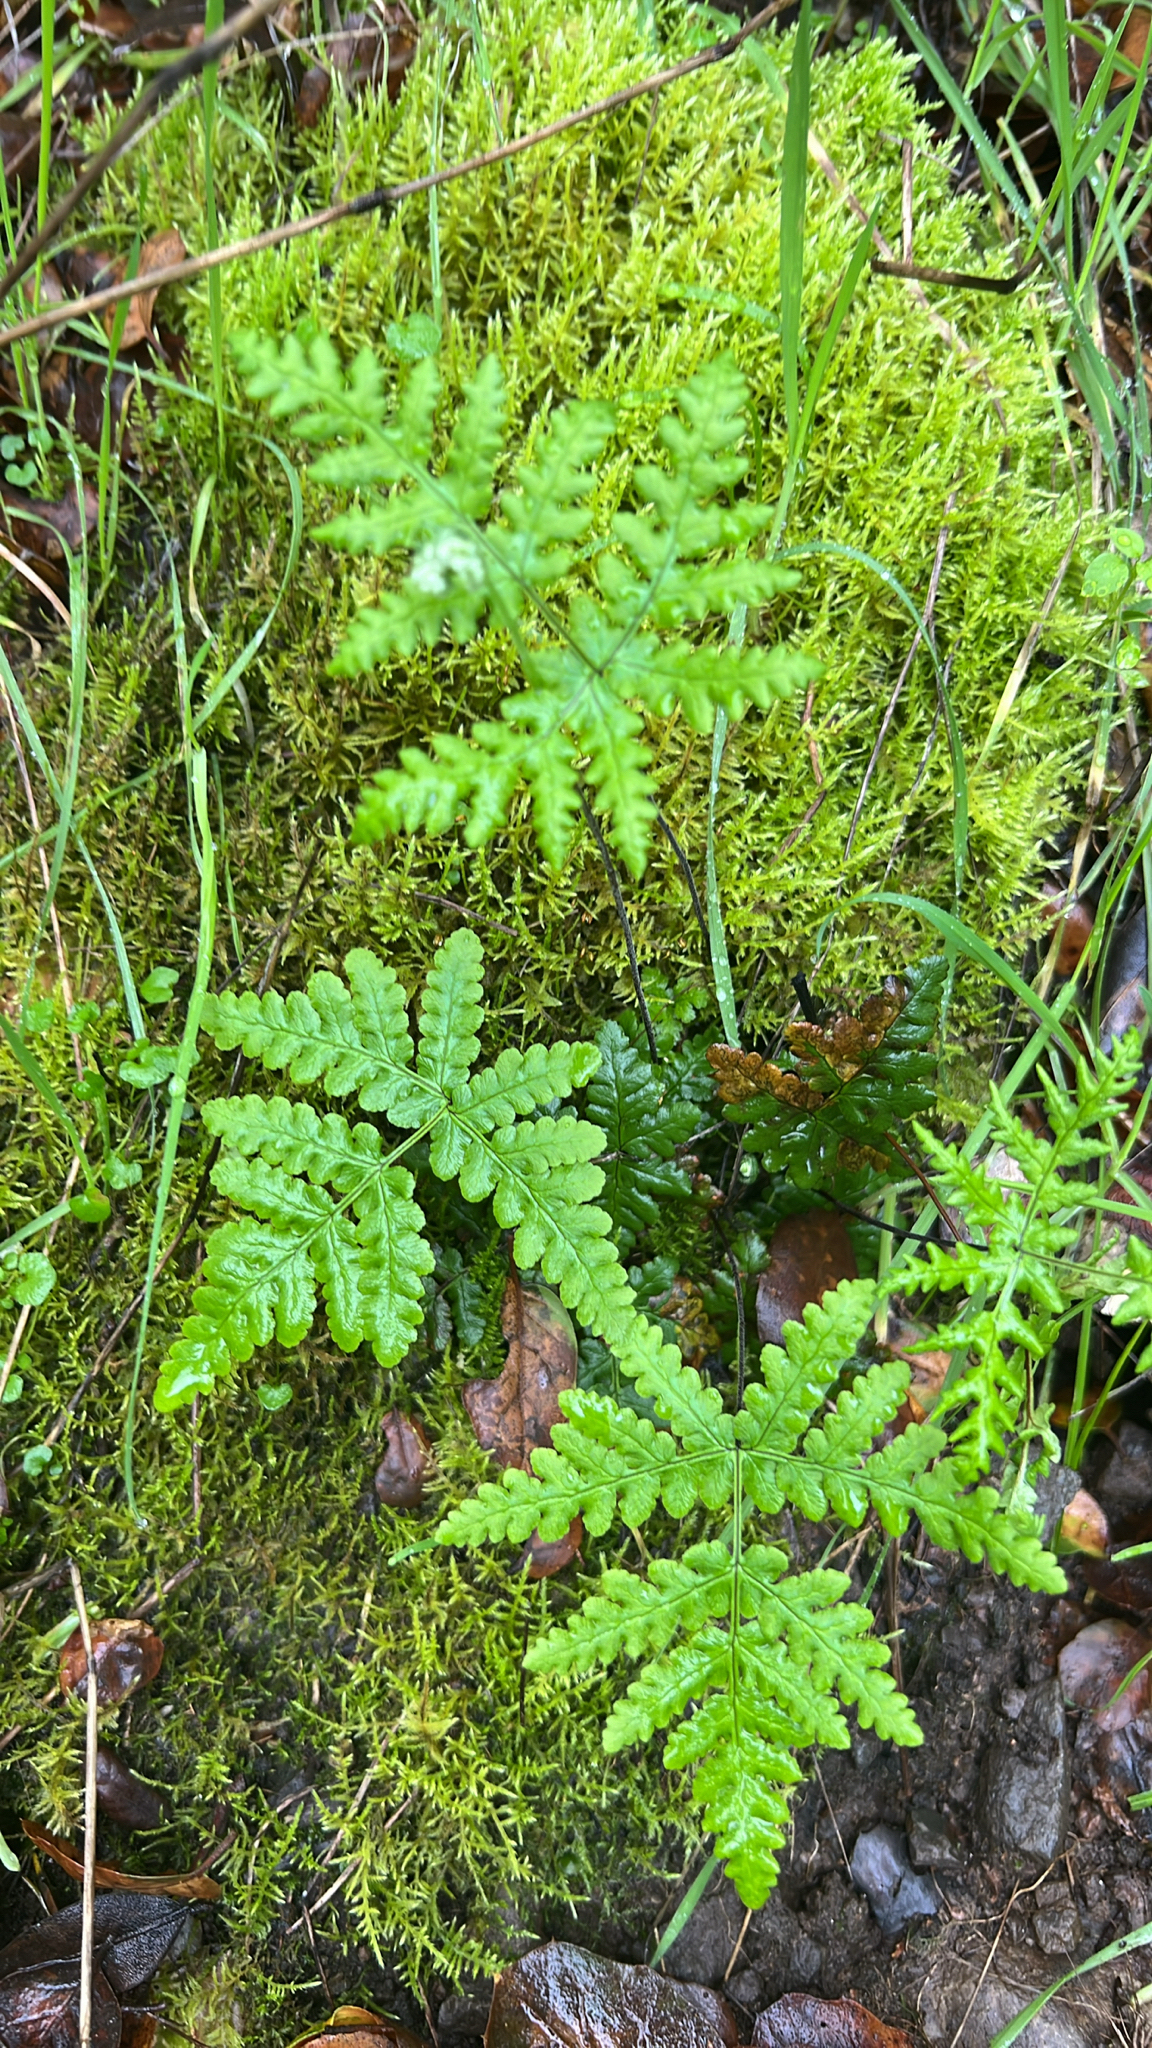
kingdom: Plantae
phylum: Tracheophyta
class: Polypodiopsida
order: Polypodiales
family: Pteridaceae
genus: Pentagramma
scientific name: Pentagramma triangularis
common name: Gold fern
